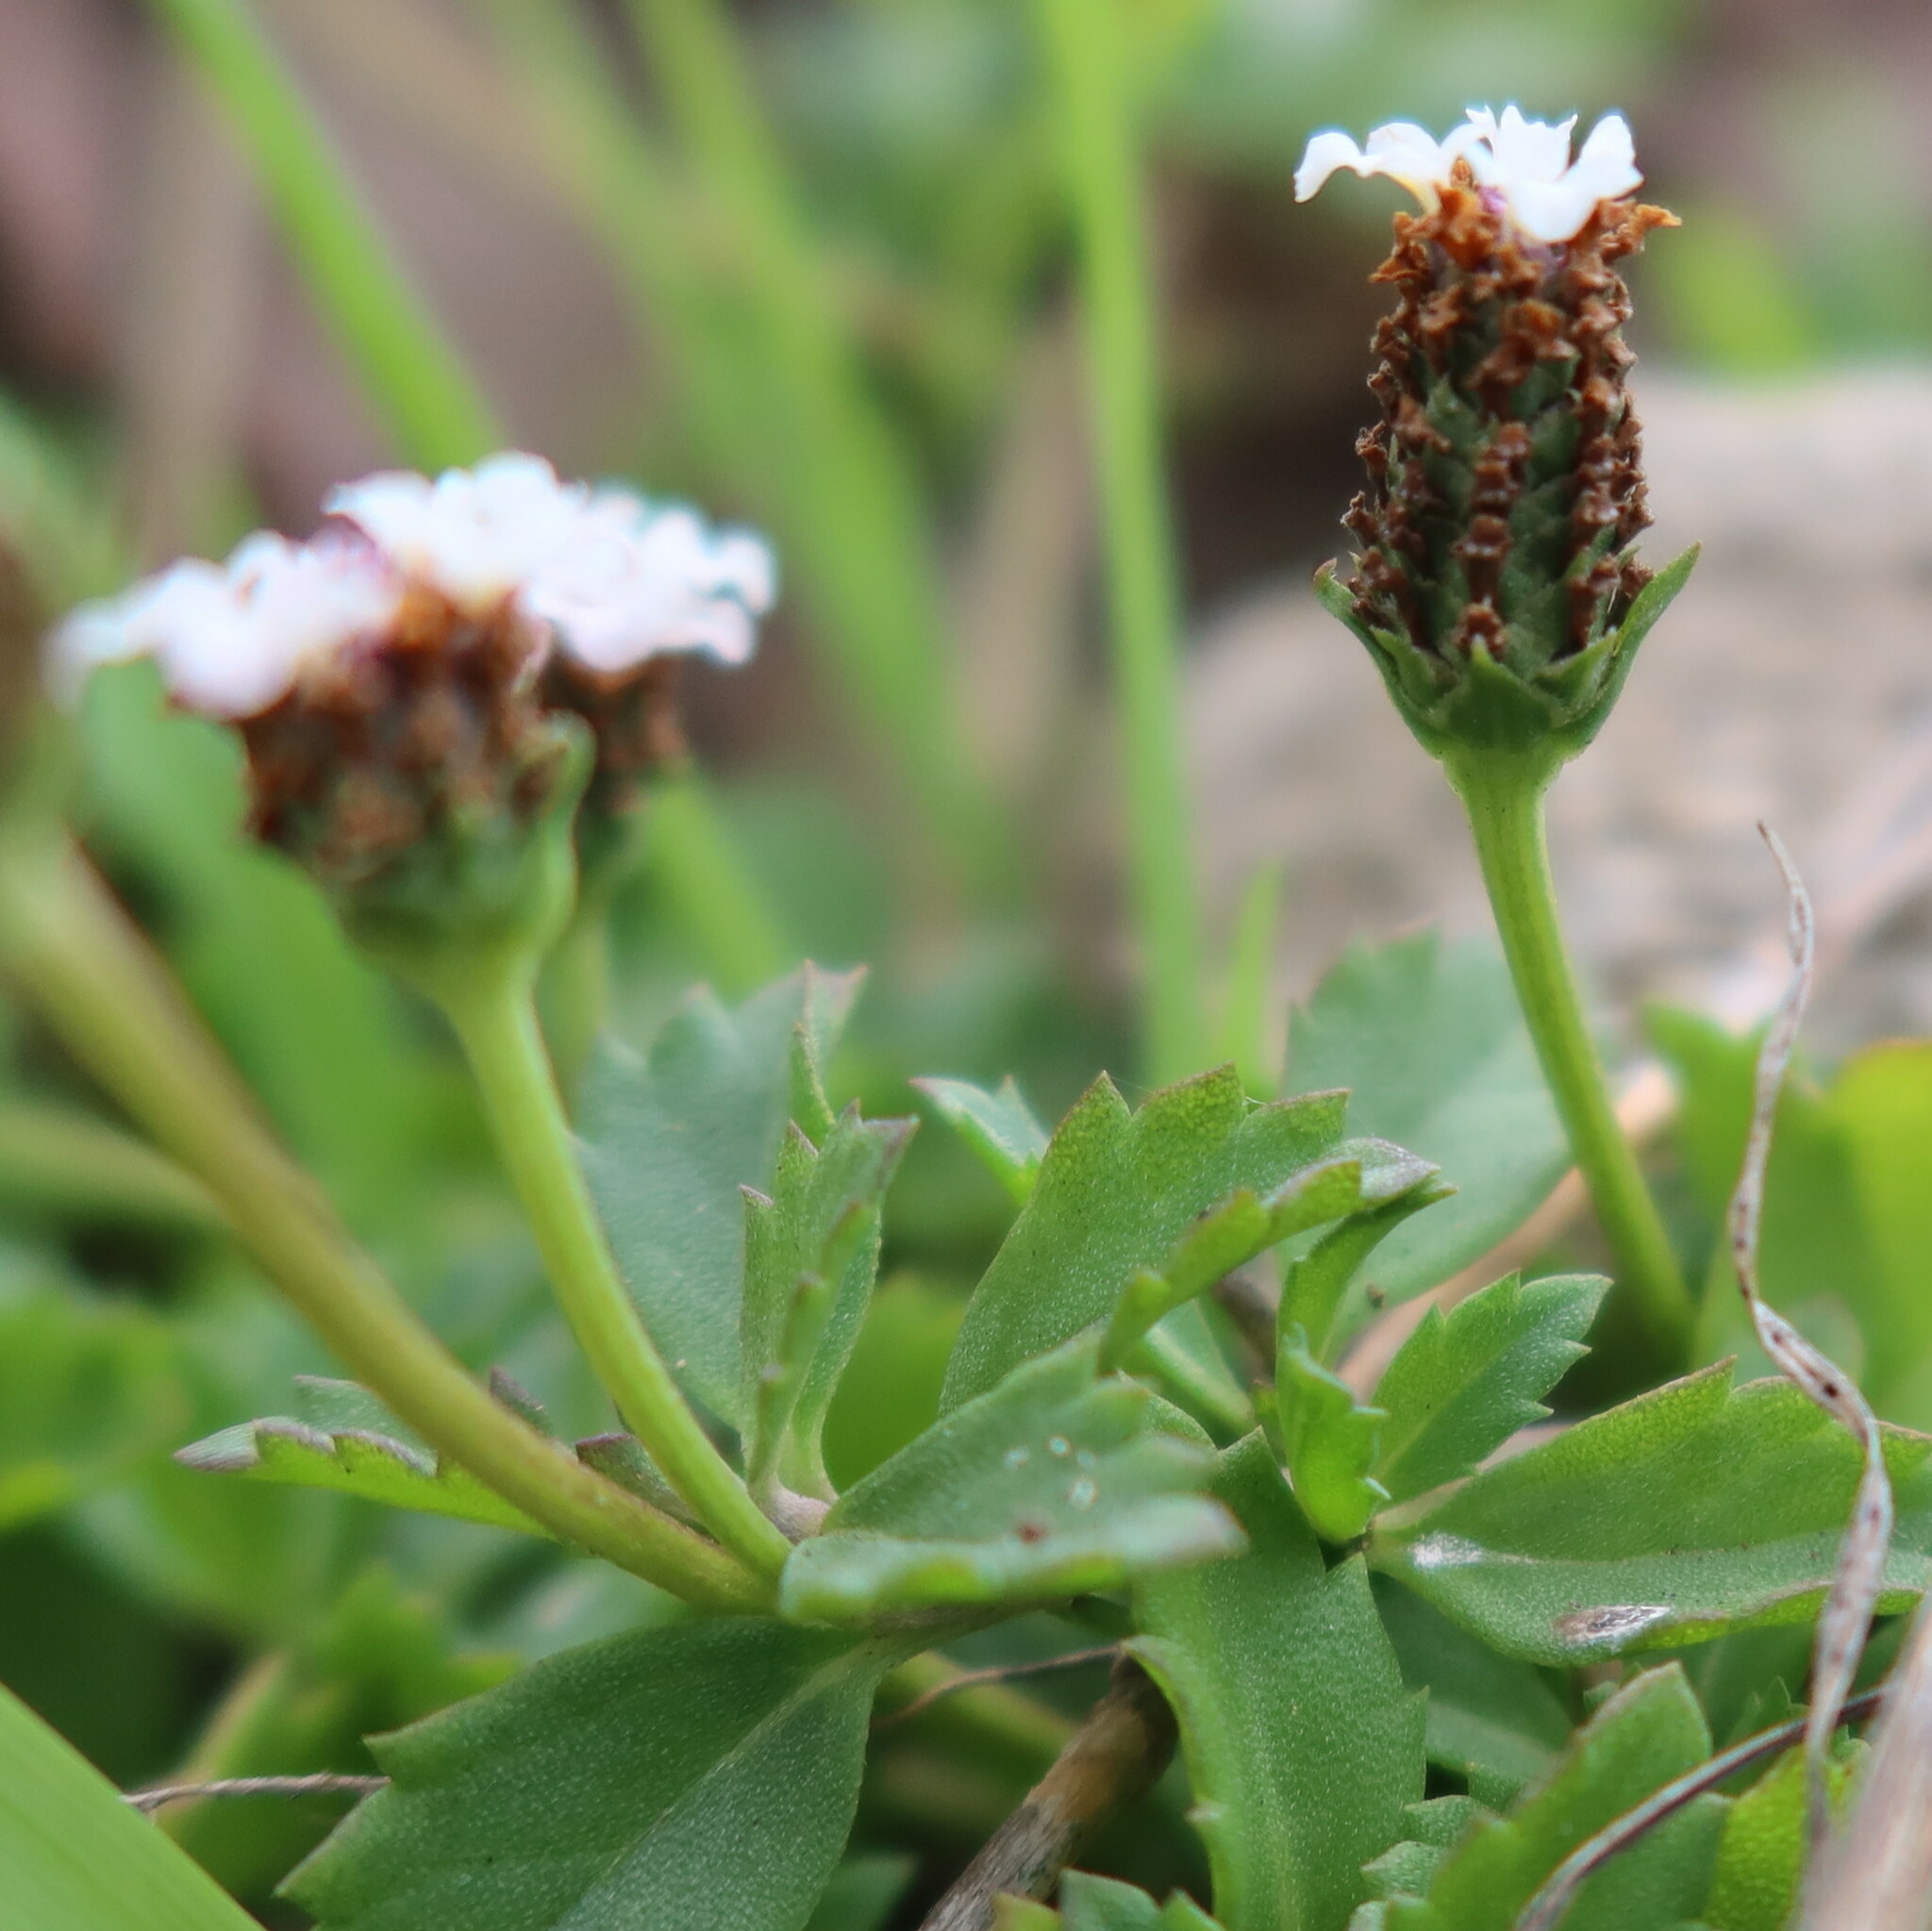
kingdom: Plantae
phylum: Tracheophyta
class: Magnoliopsida
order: Lamiales
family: Verbenaceae
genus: Phyla
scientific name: Phyla nodiflora
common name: Frogfruit
